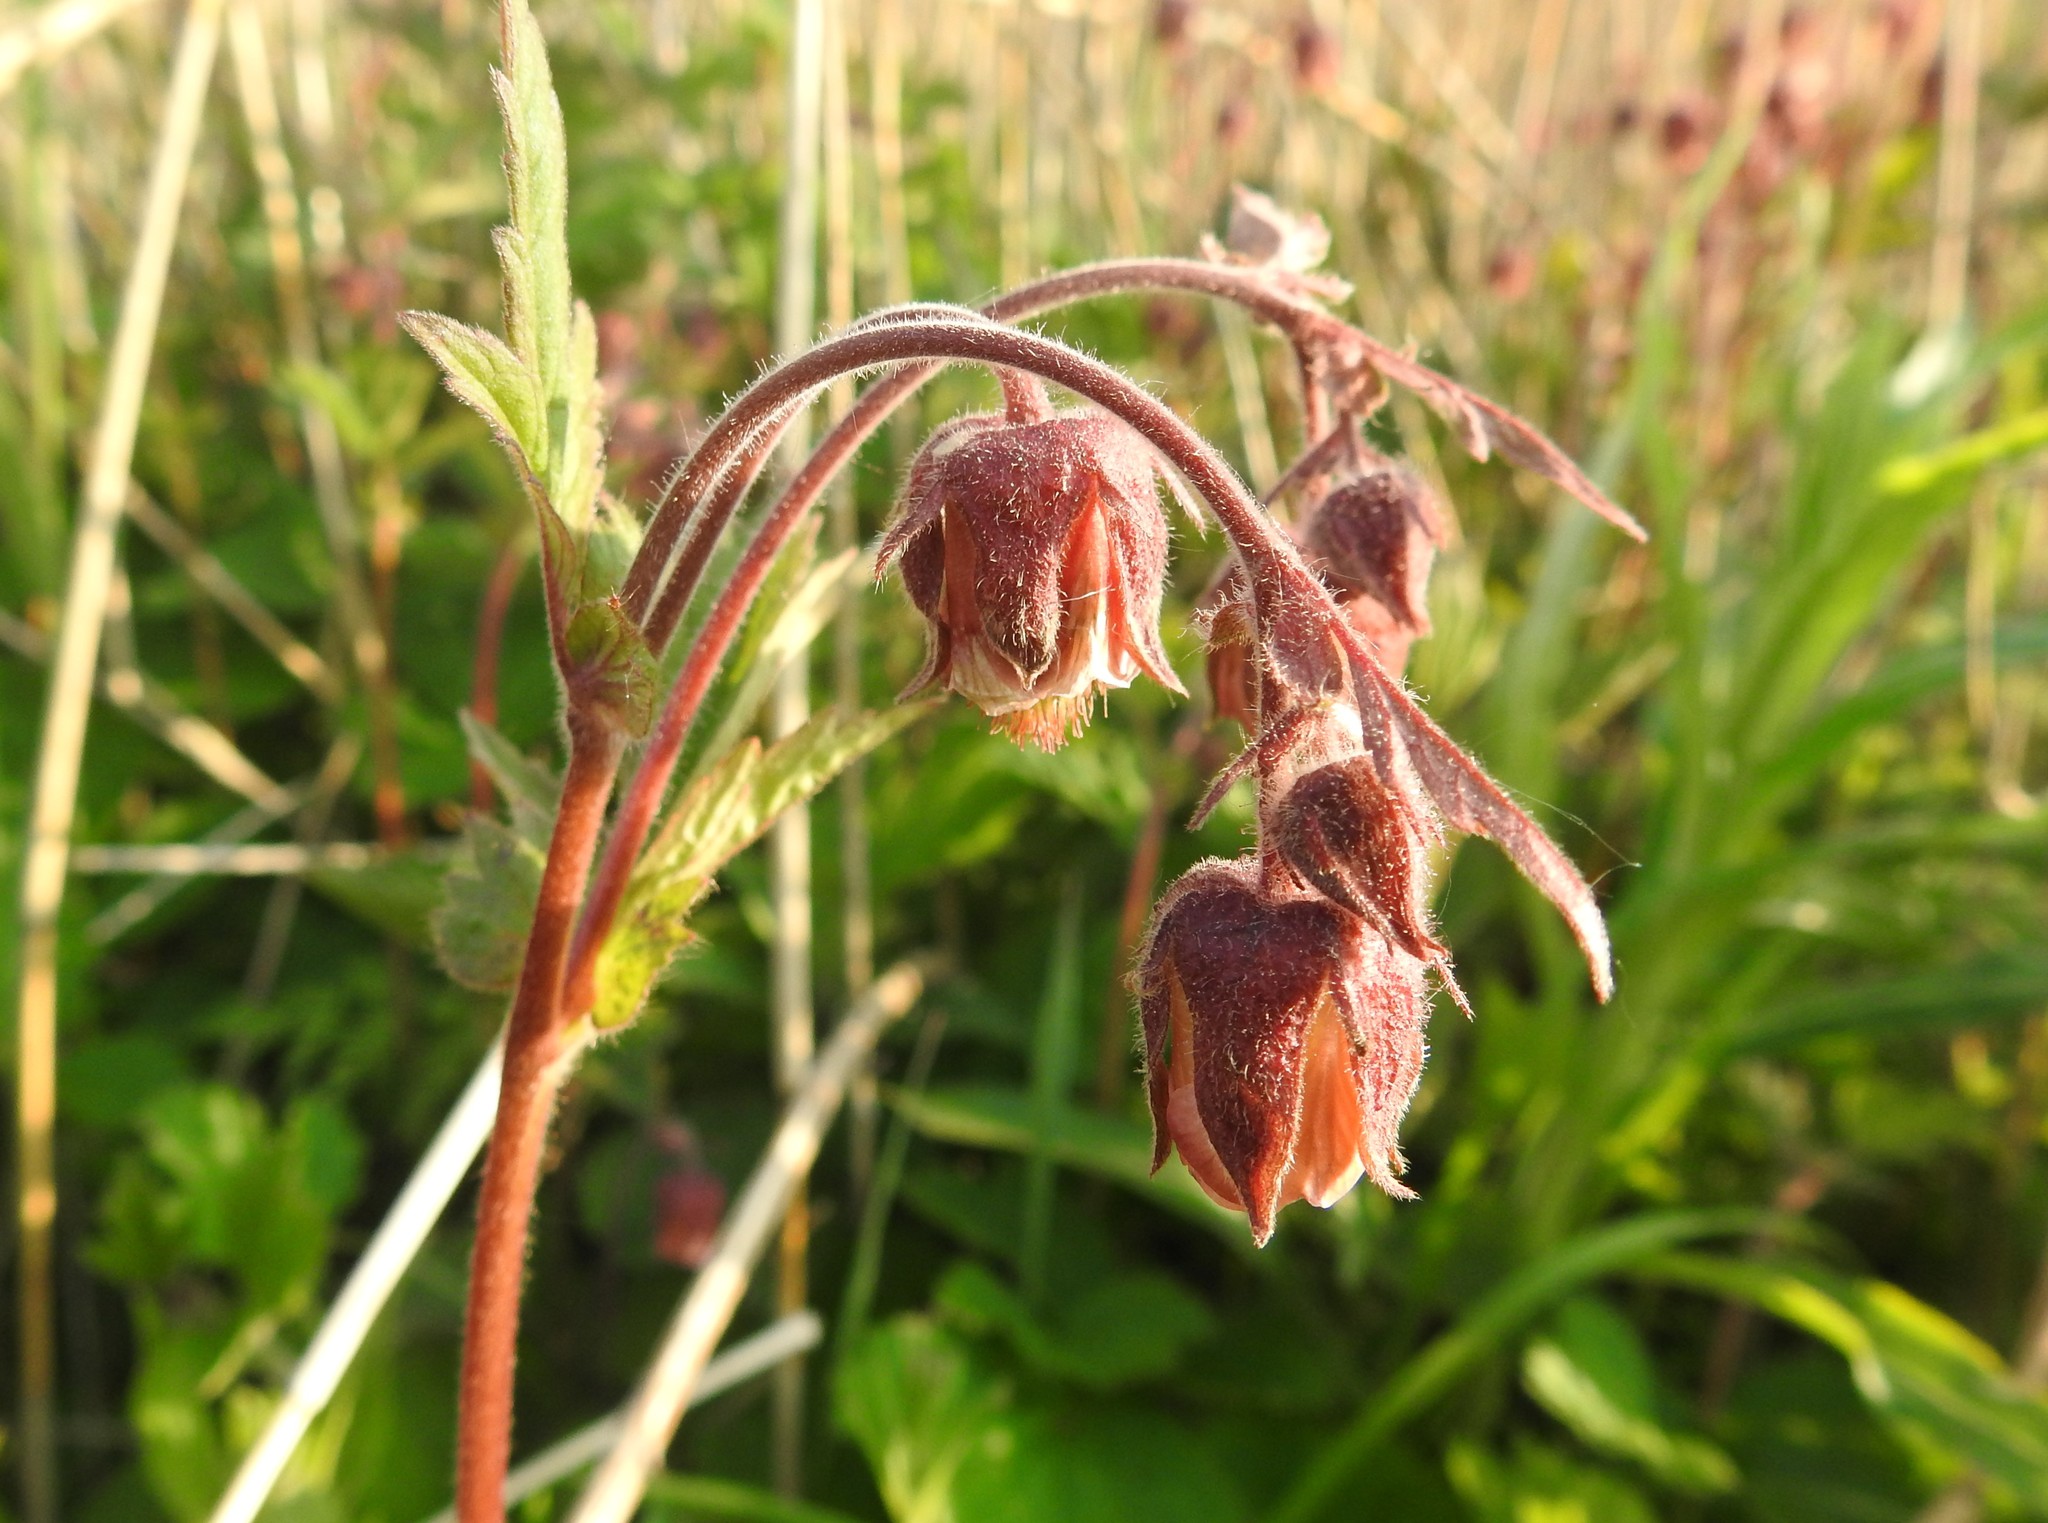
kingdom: Plantae
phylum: Tracheophyta
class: Magnoliopsida
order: Rosales
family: Rosaceae
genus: Geum
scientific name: Geum rivale
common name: Water avens
